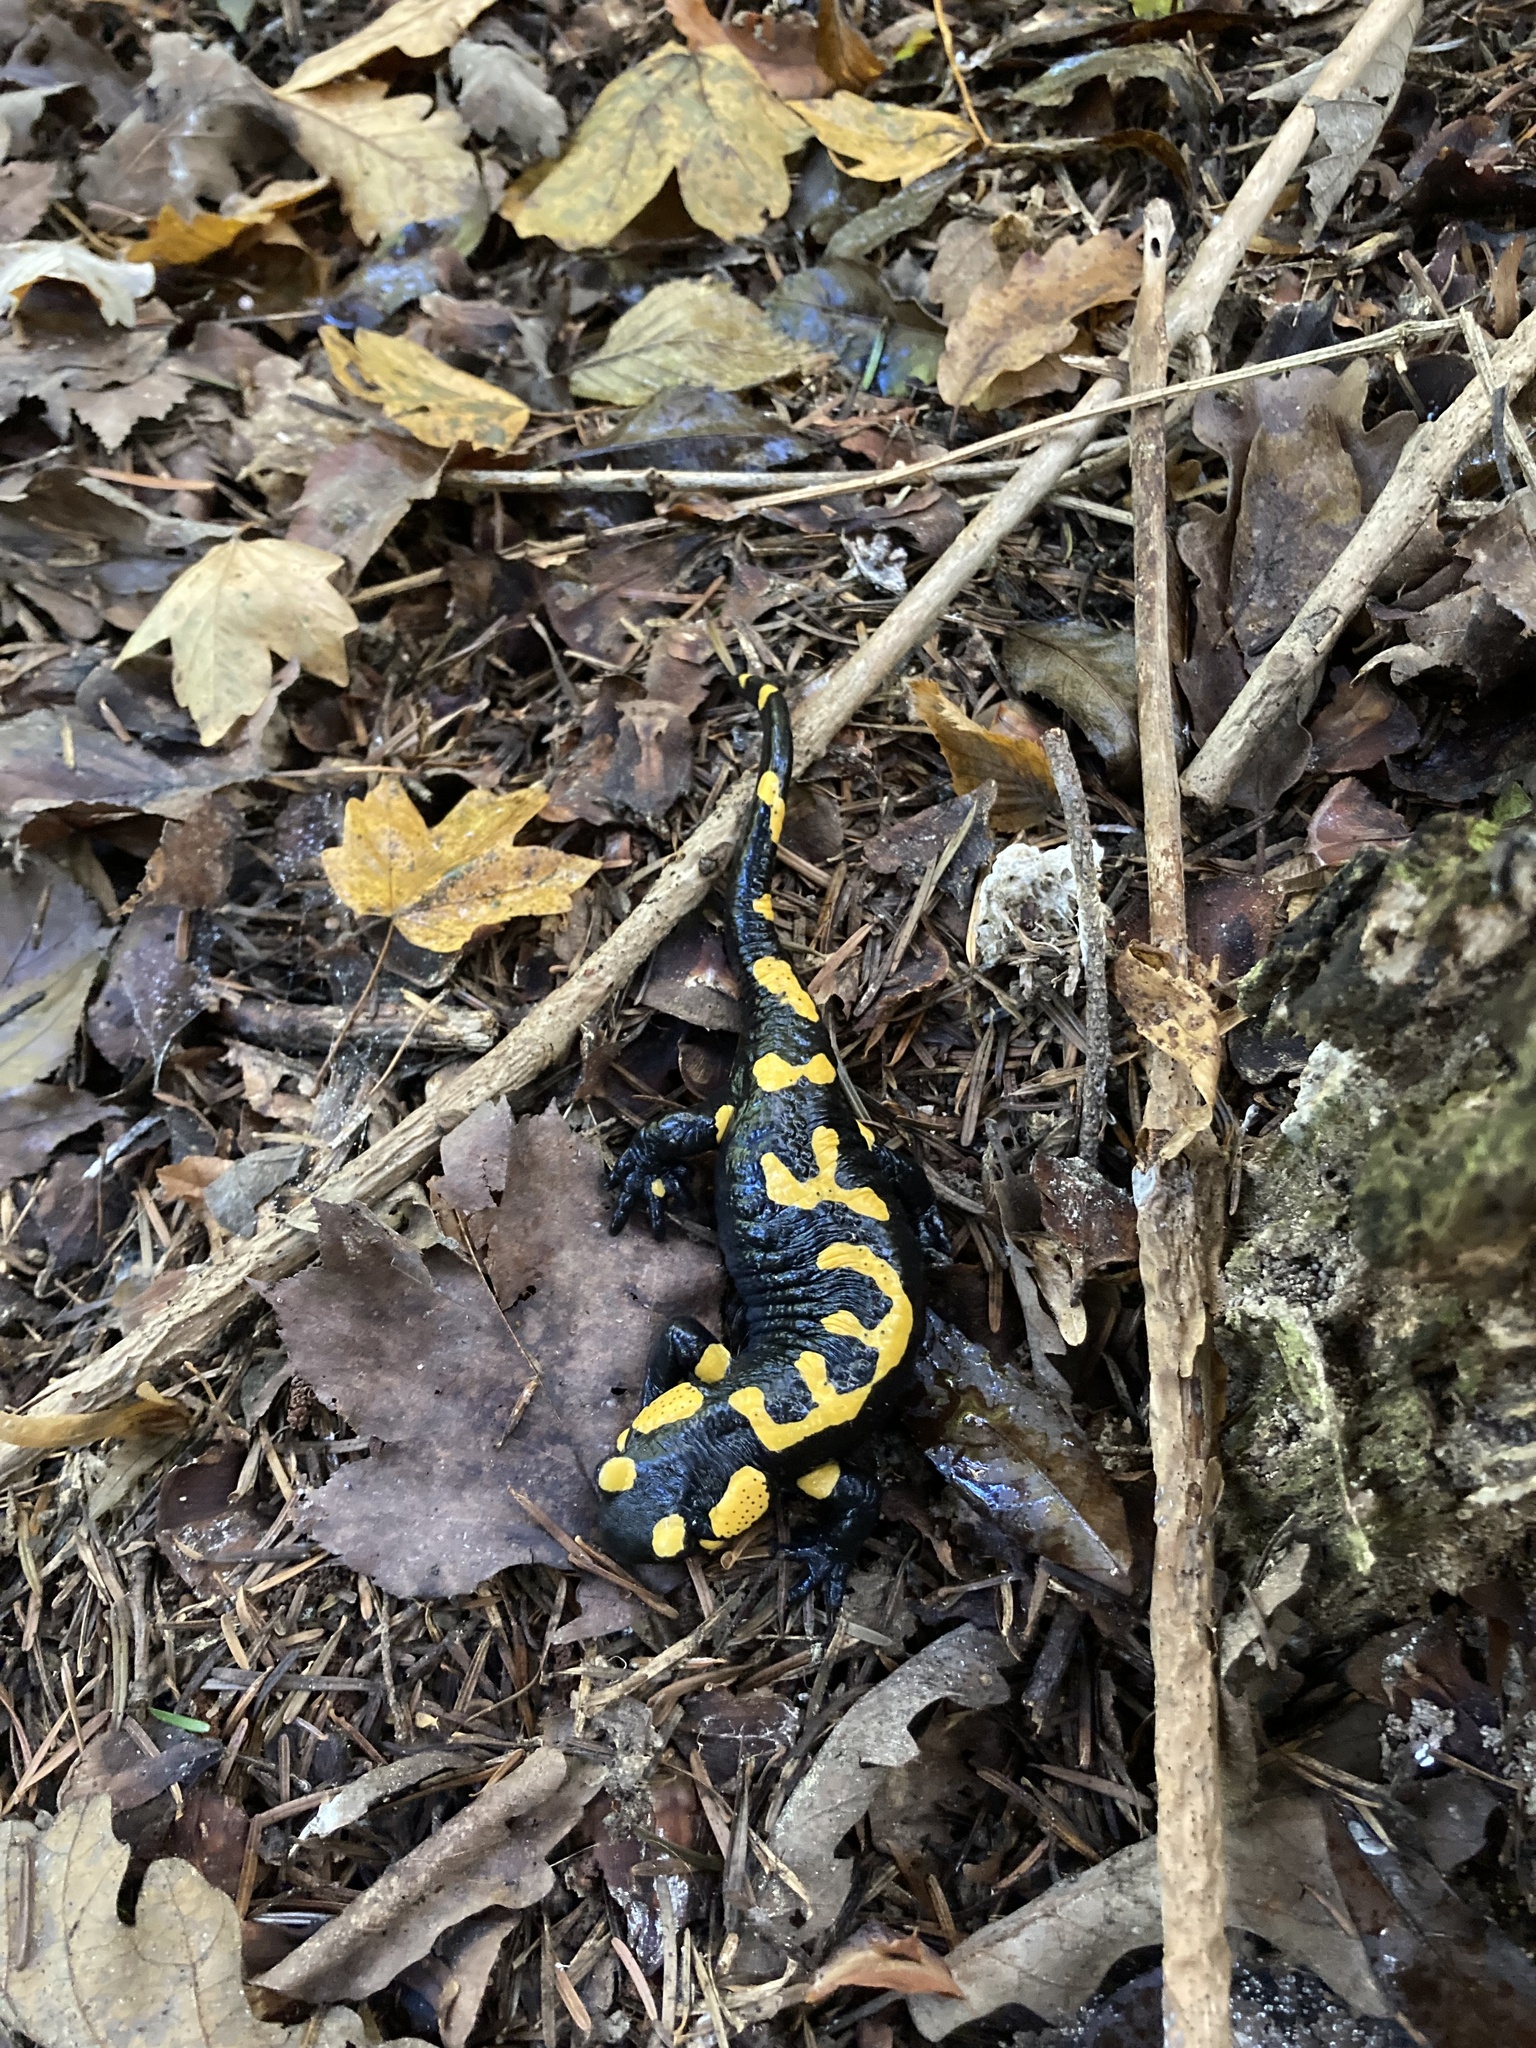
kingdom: Animalia
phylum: Chordata
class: Amphibia
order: Caudata
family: Salamandridae
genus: Salamandra
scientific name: Salamandra salamandra
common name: Fire salamander
